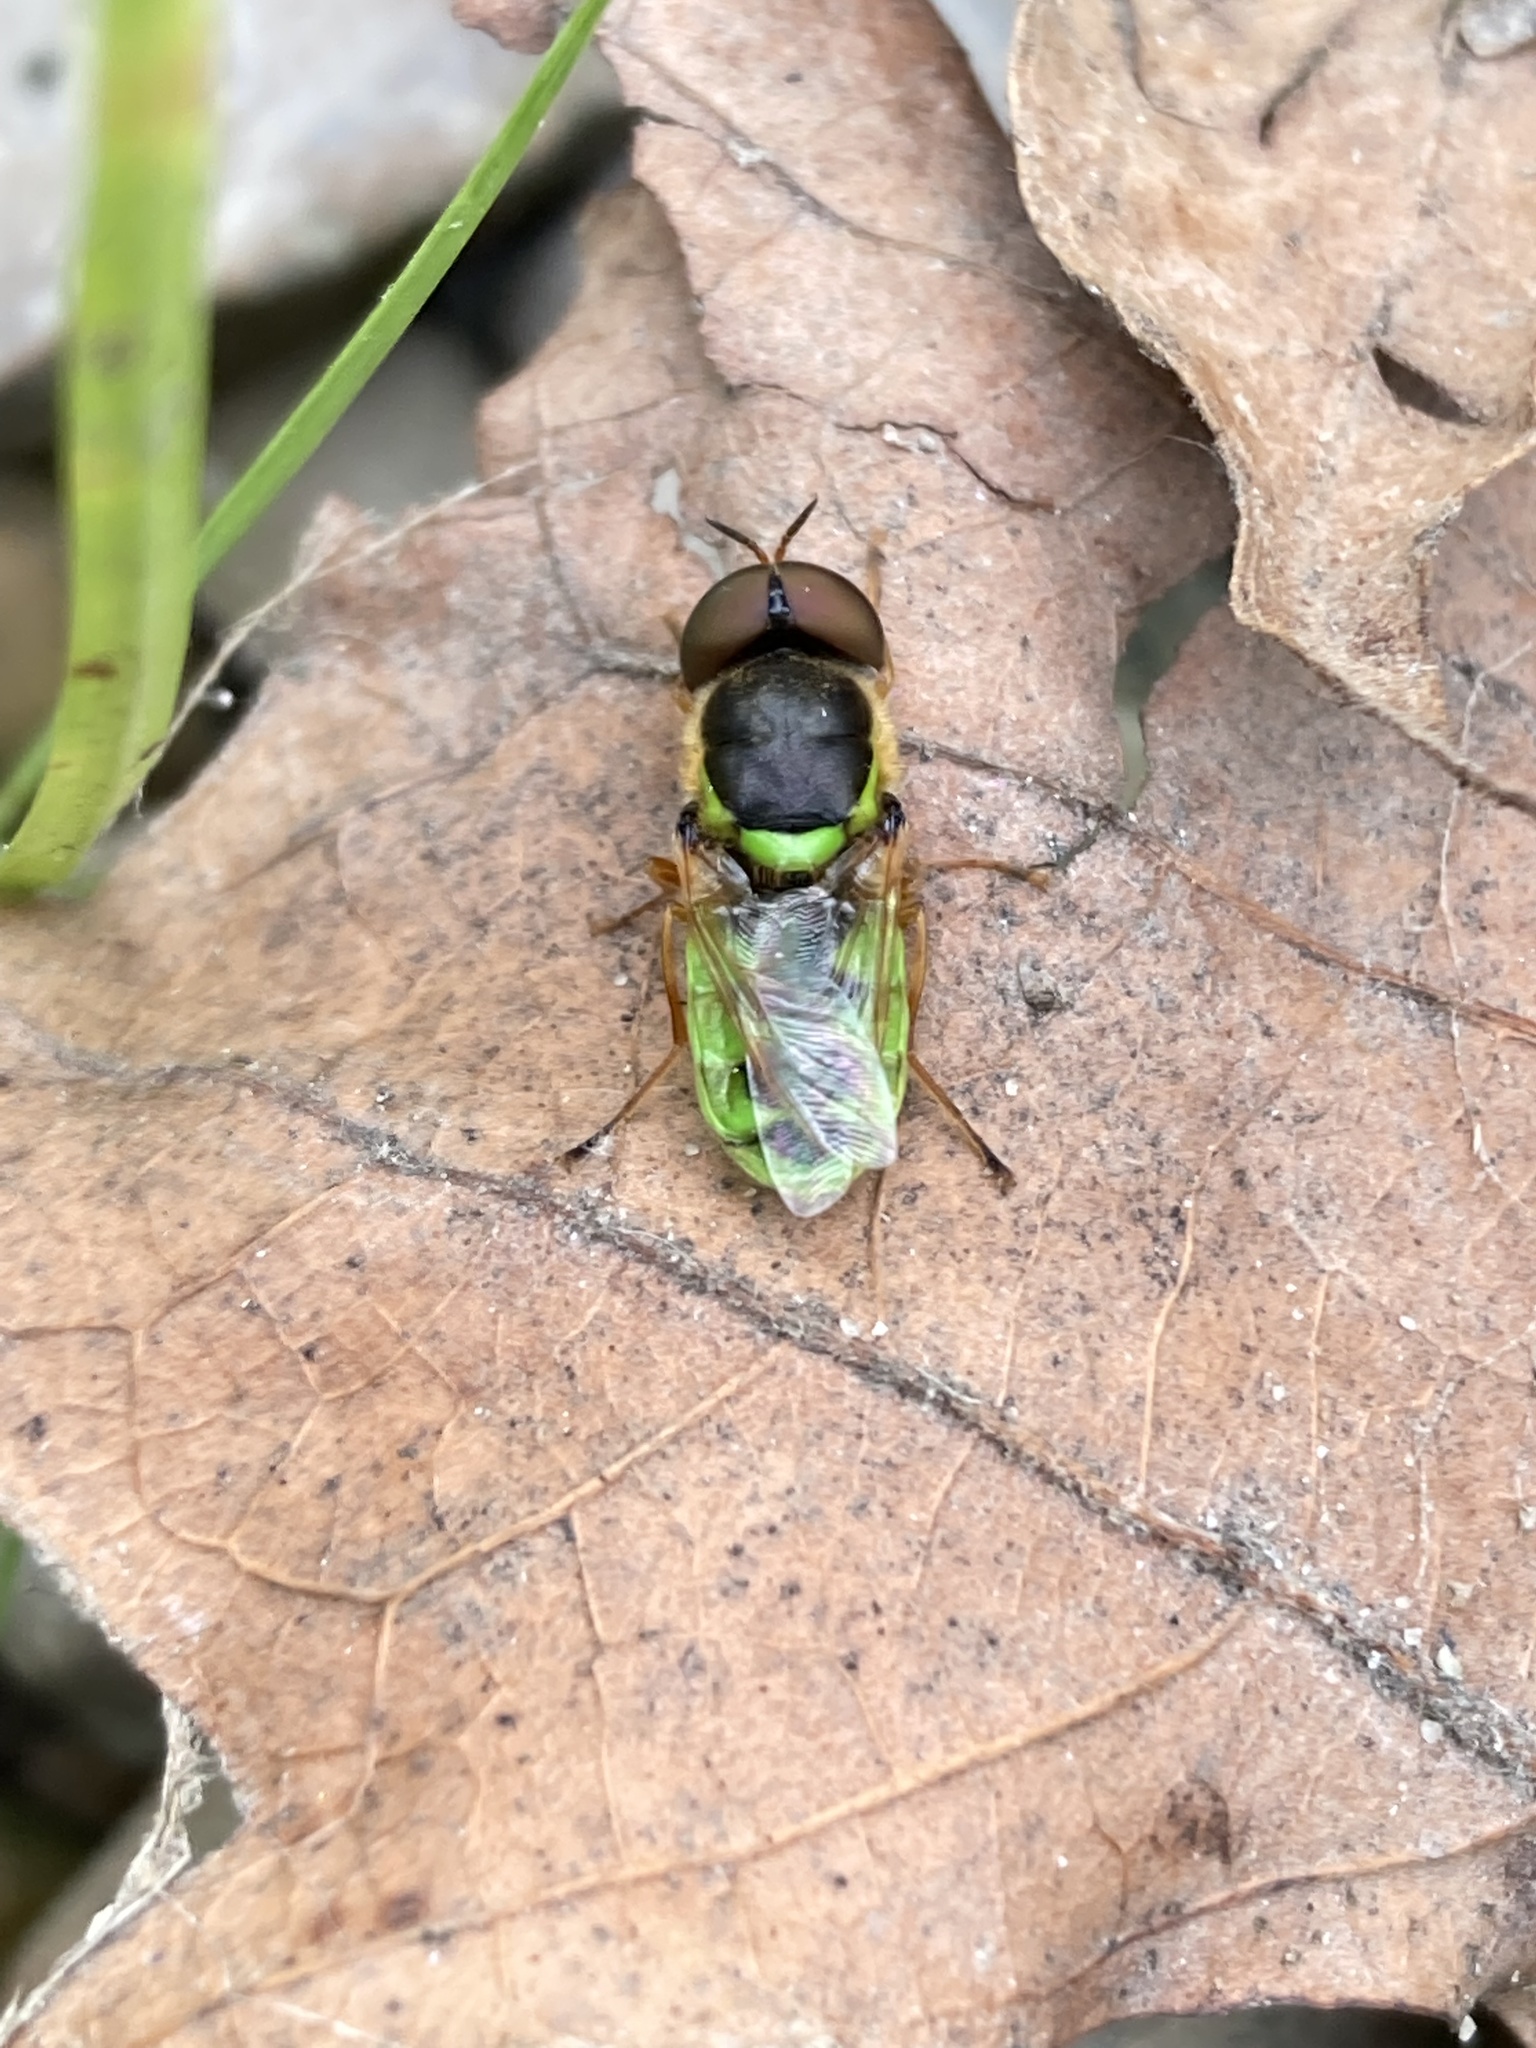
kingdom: Animalia
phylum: Arthropoda
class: Insecta
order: Diptera
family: Stratiomyidae
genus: Odontomyia
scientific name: Odontomyia cincta
